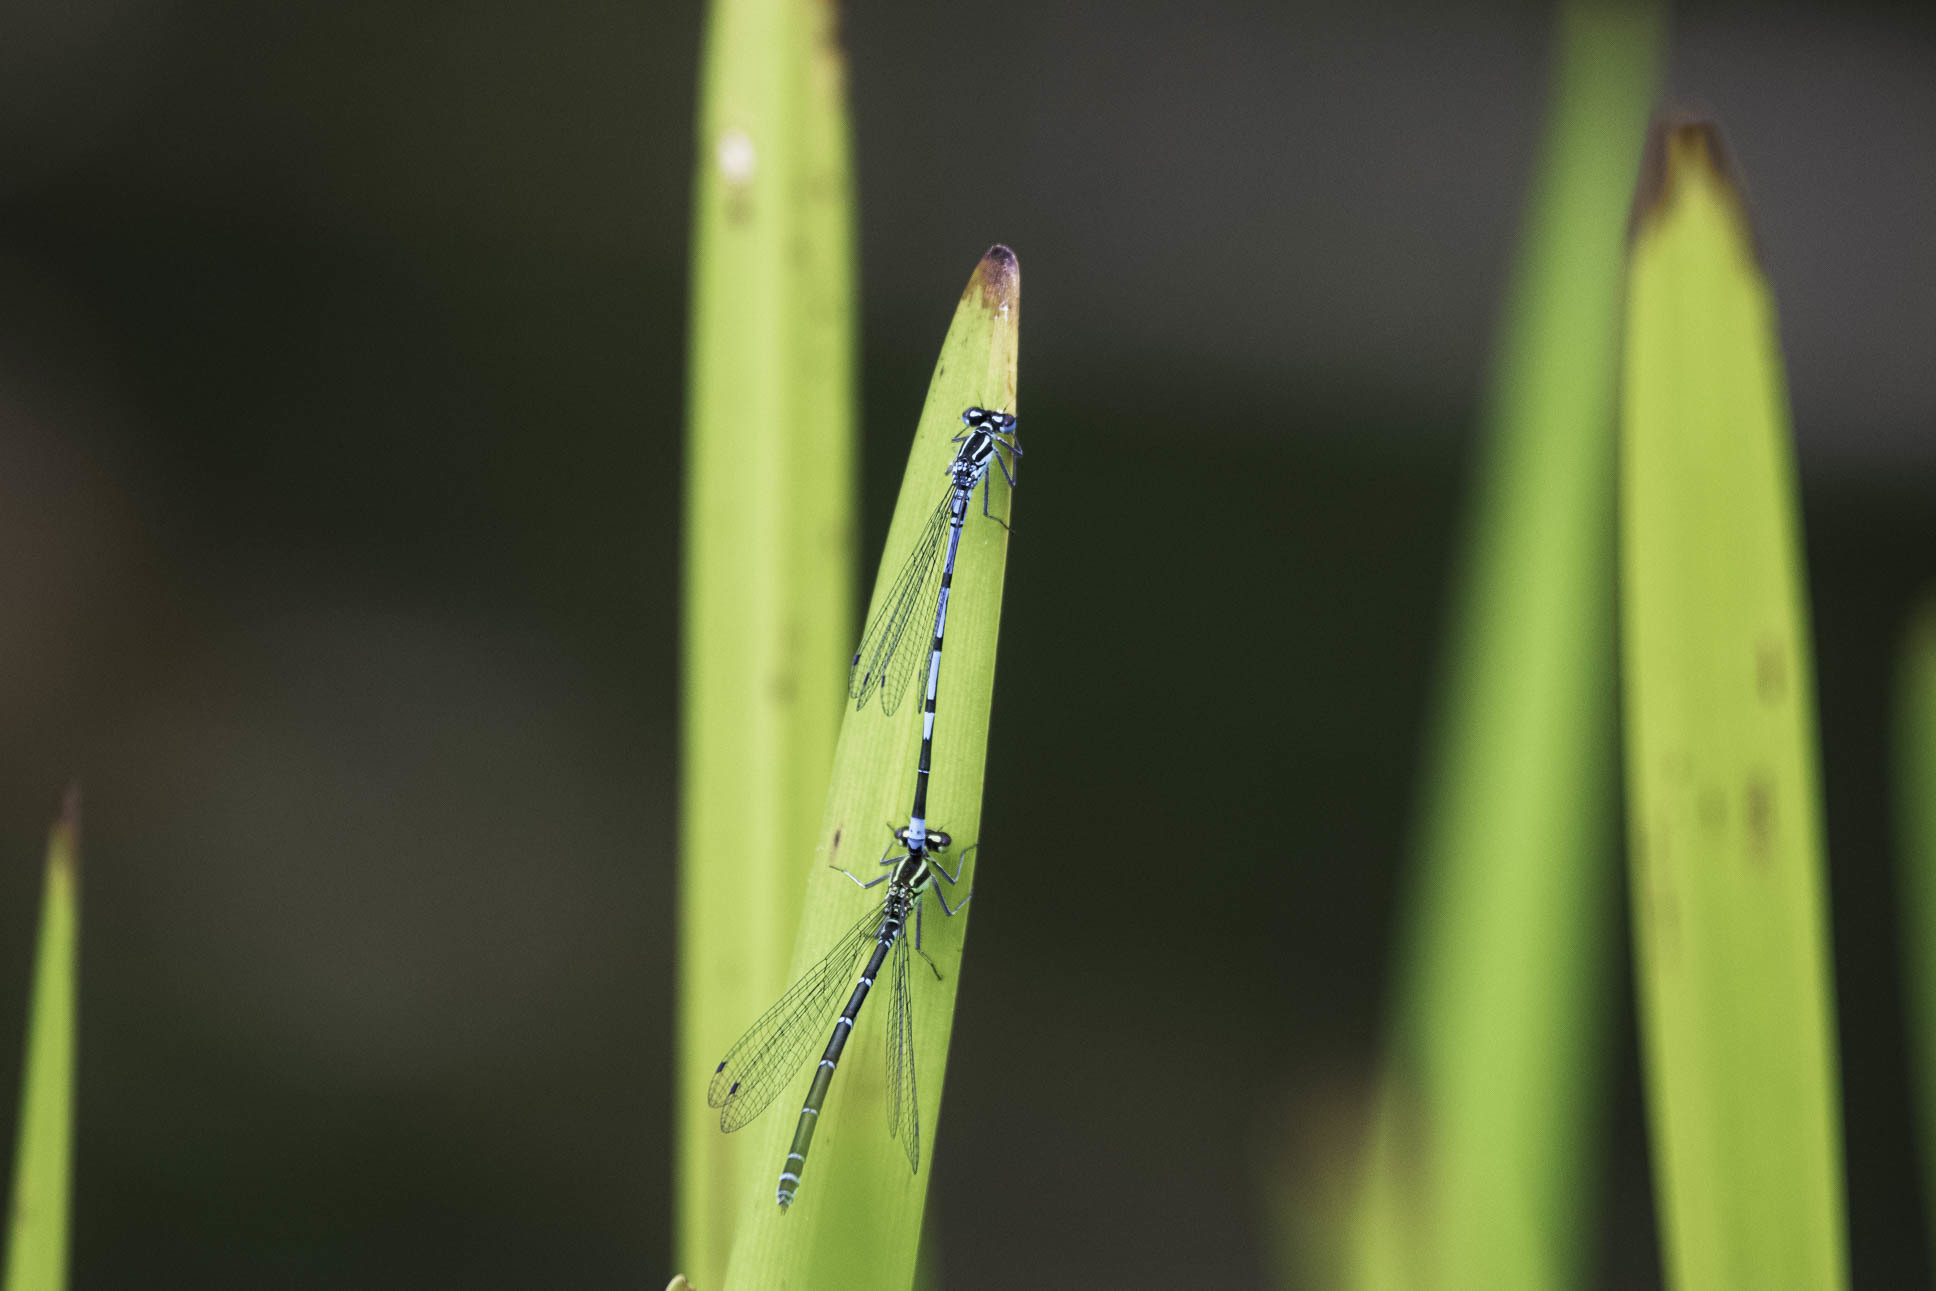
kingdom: Animalia
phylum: Arthropoda
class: Insecta
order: Odonata
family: Coenagrionidae
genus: Coenagrion
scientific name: Coenagrion puella
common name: Azure damselfly
